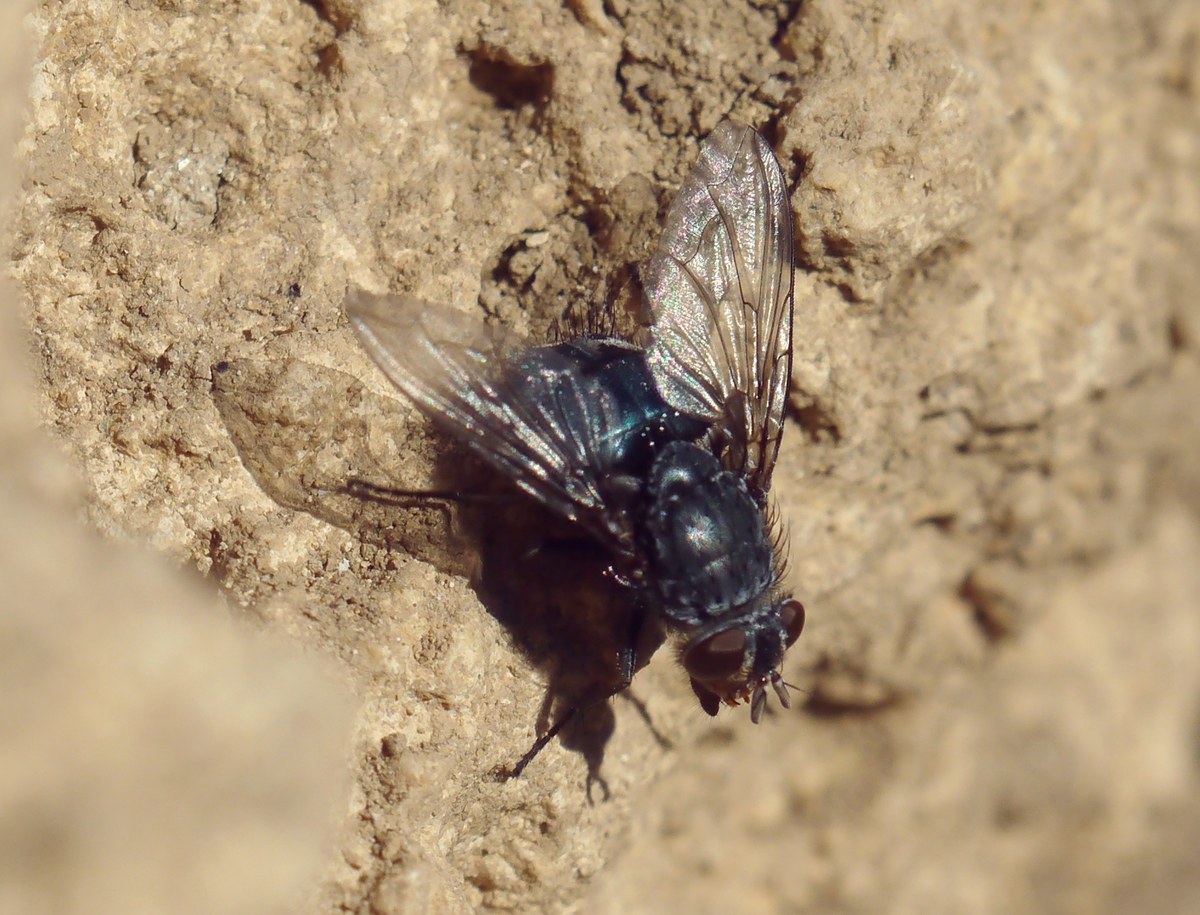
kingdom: Animalia
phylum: Arthropoda
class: Insecta
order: Diptera
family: Calliphoridae
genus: Calliphora
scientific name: Calliphora
